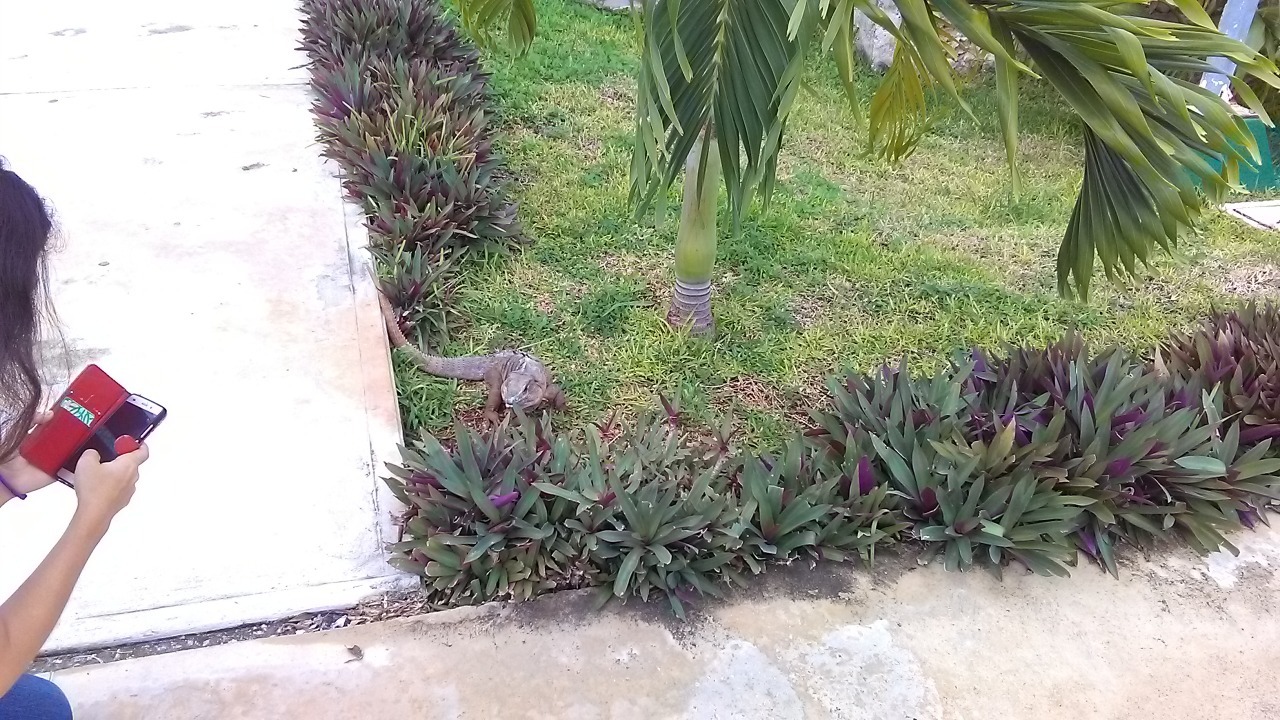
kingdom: Animalia
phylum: Chordata
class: Squamata
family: Iguanidae
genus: Ctenosaura
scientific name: Ctenosaura similis
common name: Black spiny-tailed iguana
